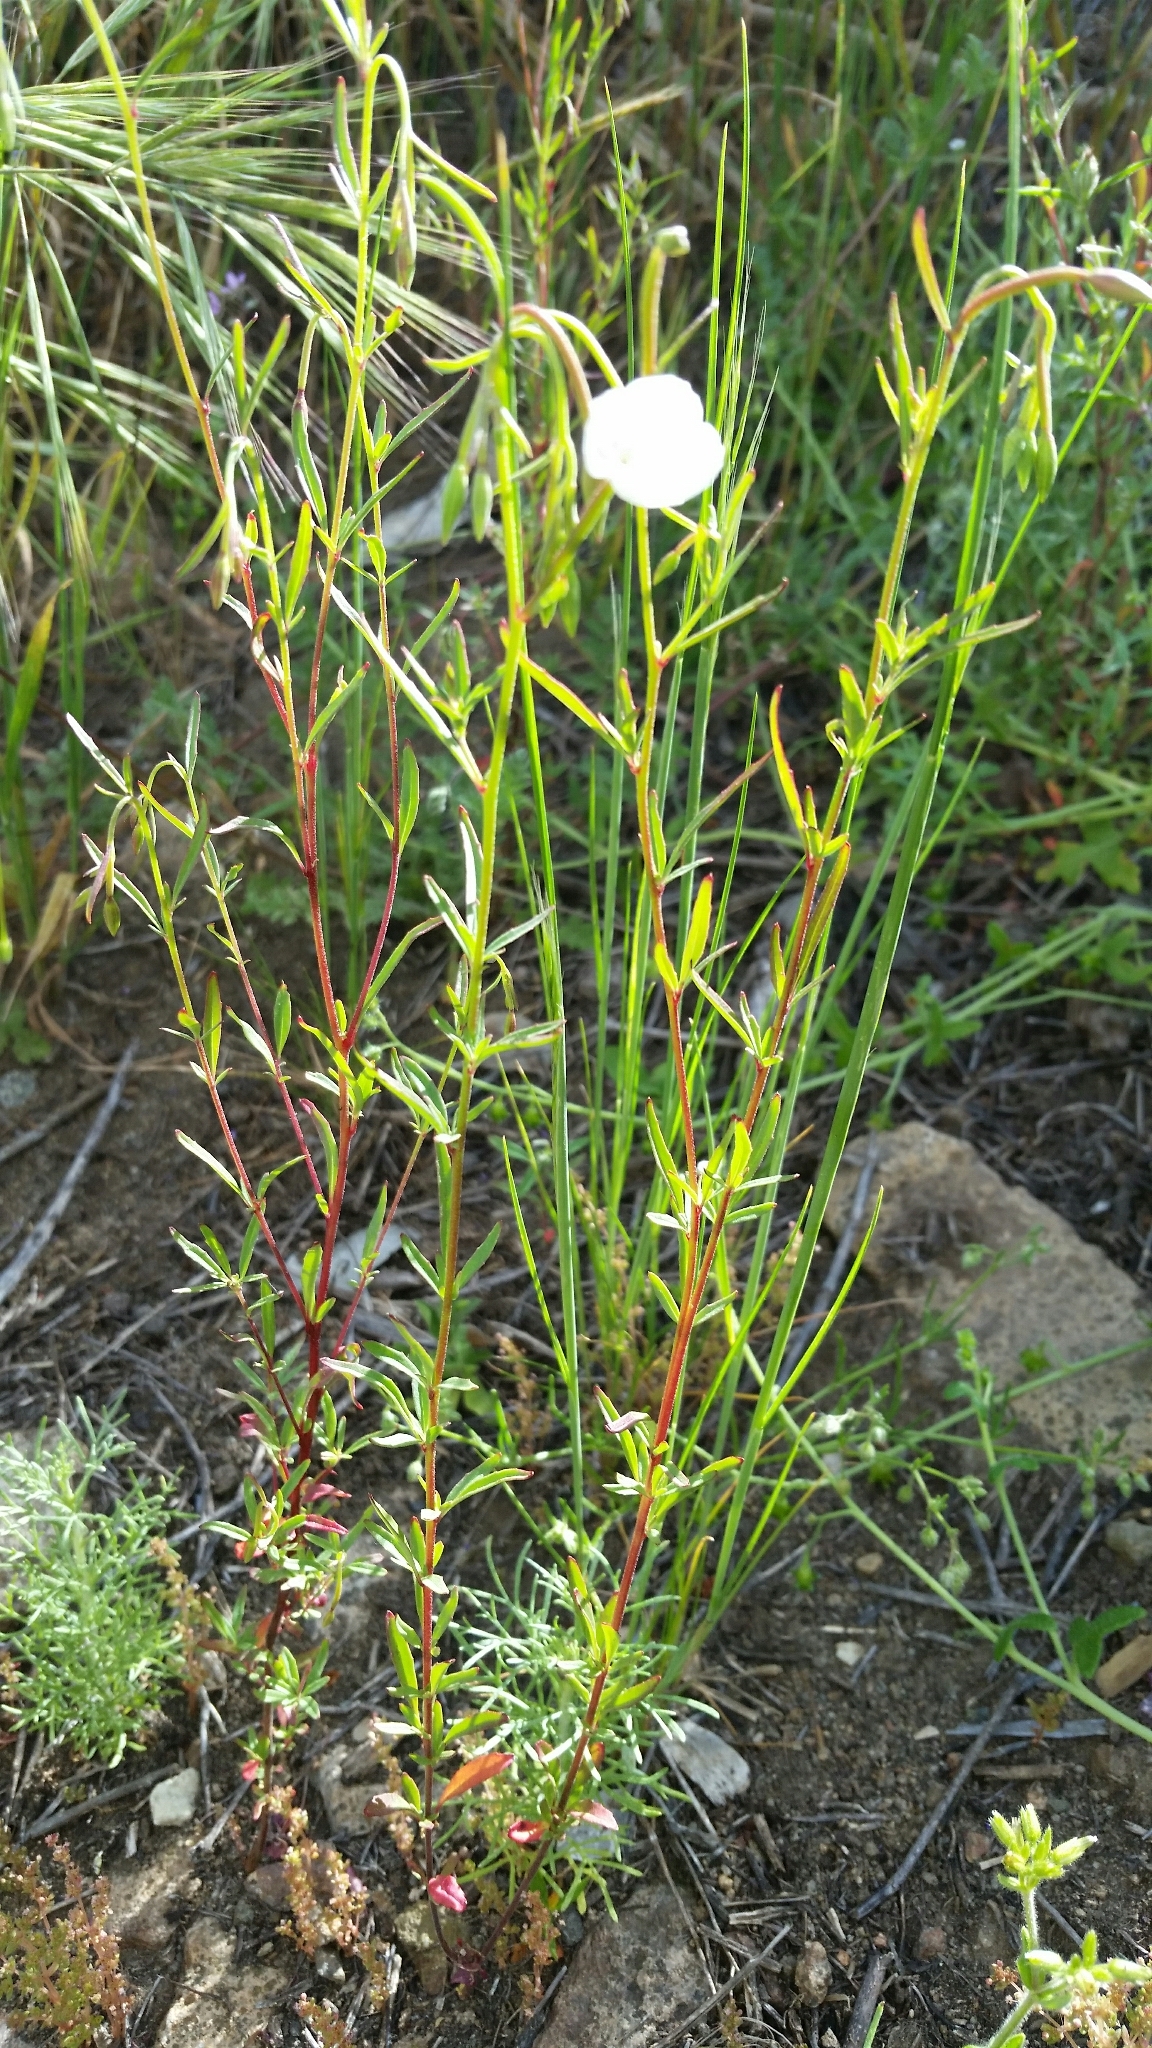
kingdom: Plantae
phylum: Tracheophyta
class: Magnoliopsida
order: Myrtales
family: Onagraceae
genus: Clarkia
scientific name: Clarkia epilobioides
